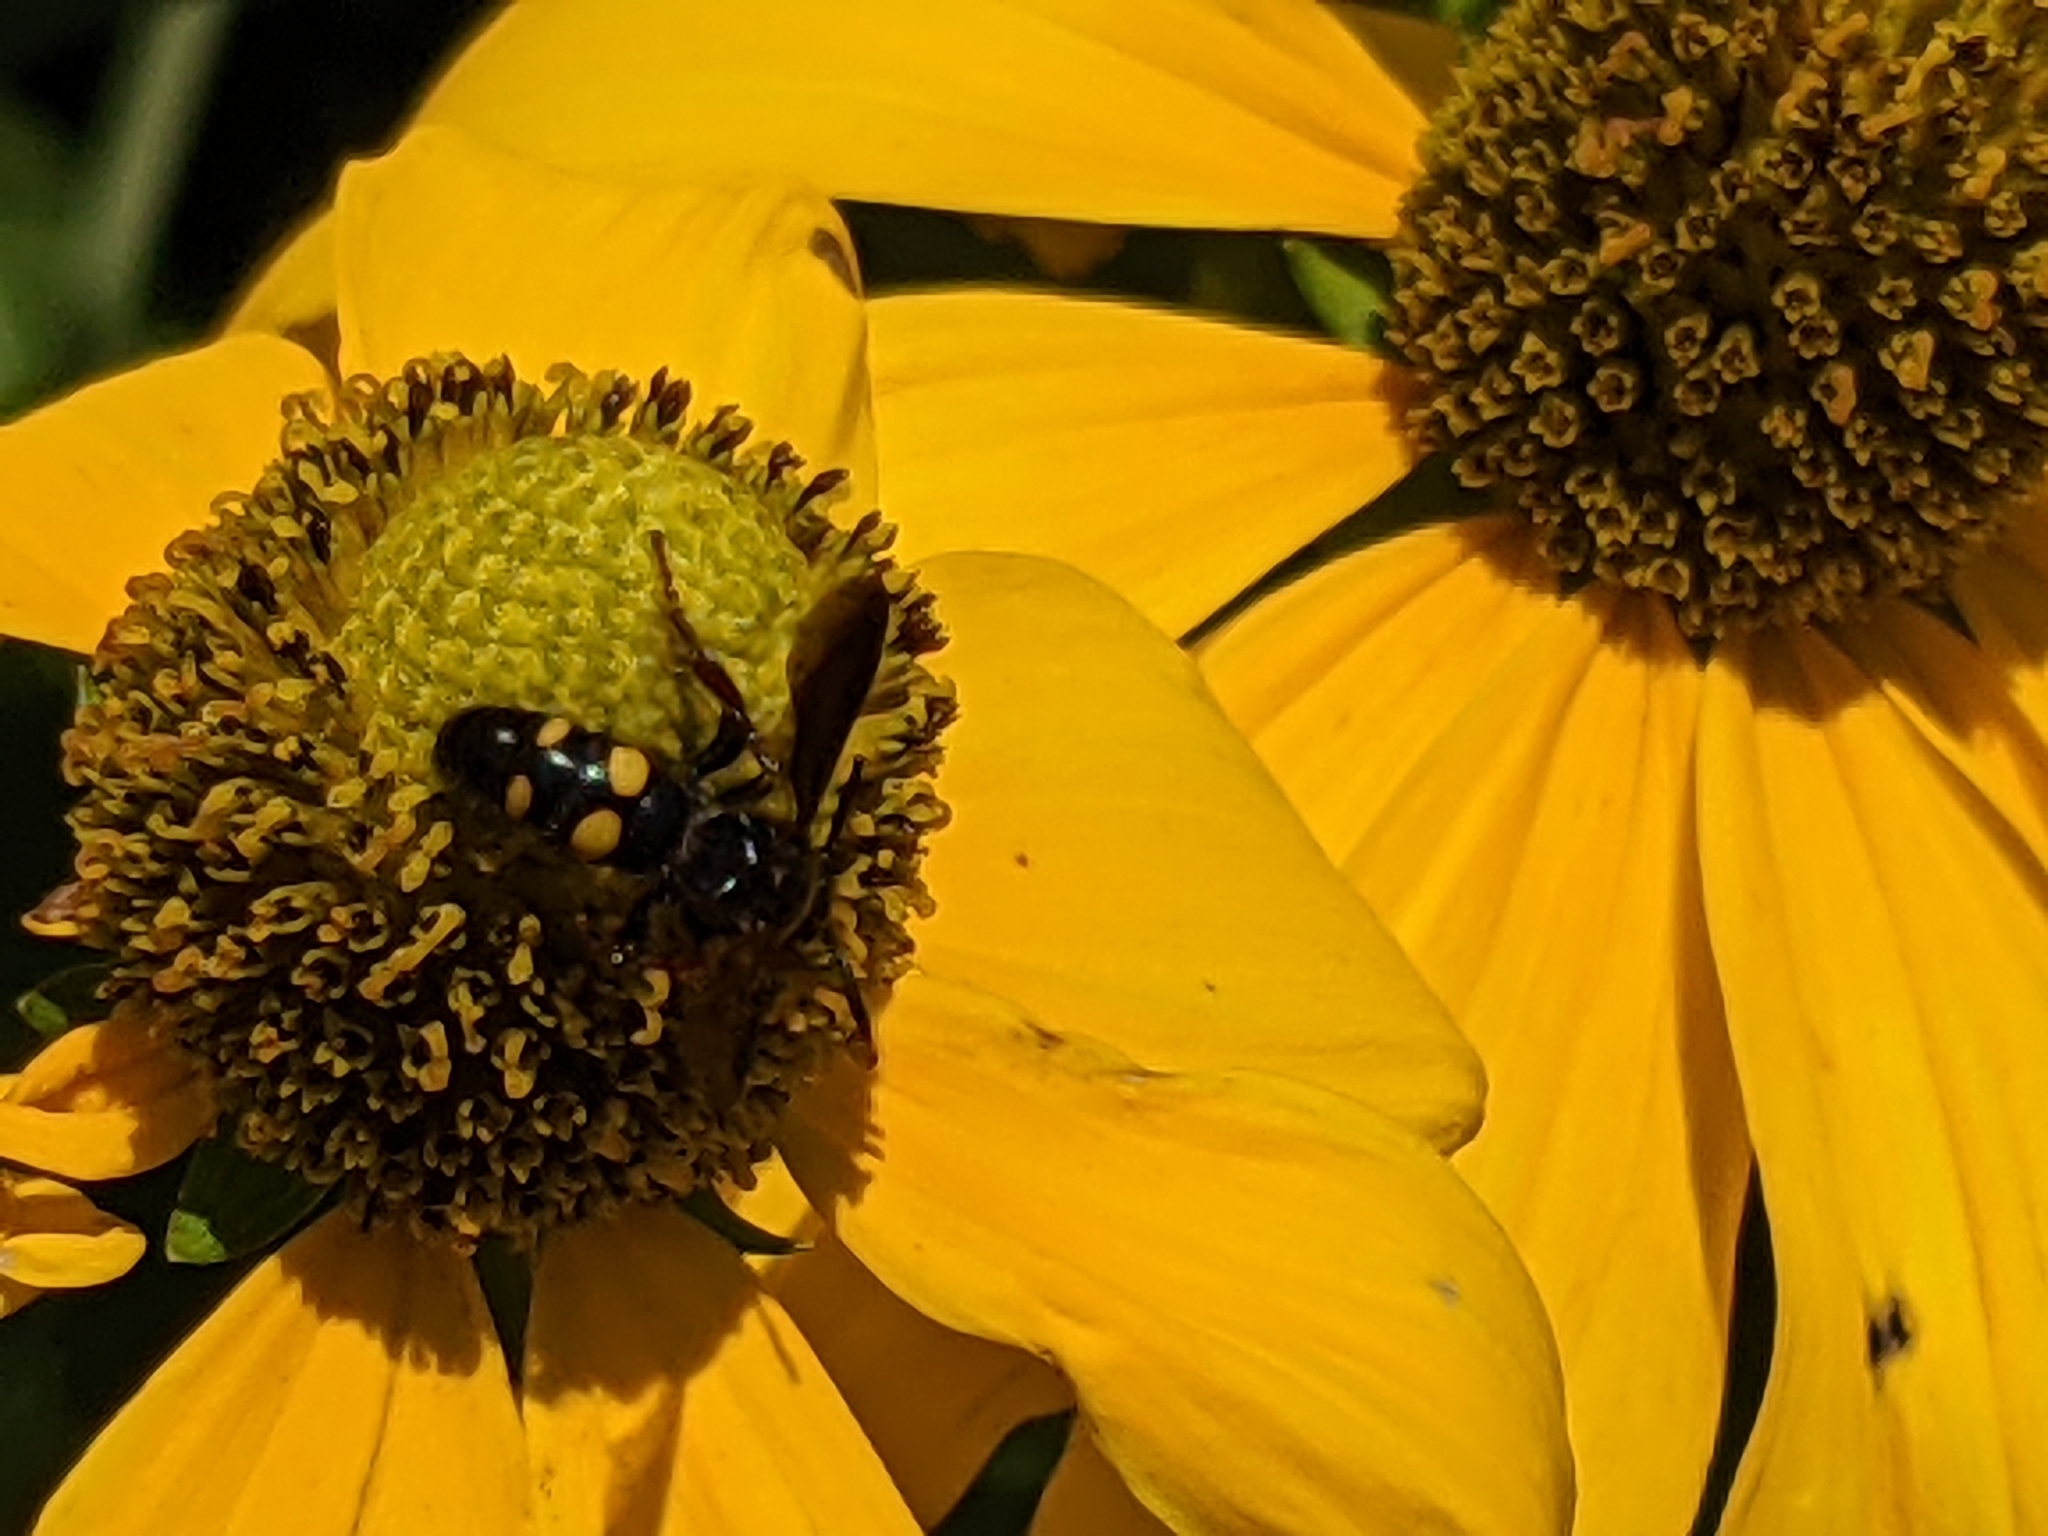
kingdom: Animalia
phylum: Arthropoda
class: Insecta
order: Hymenoptera
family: Scoliidae
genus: Scolia
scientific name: Scolia nobilitata
